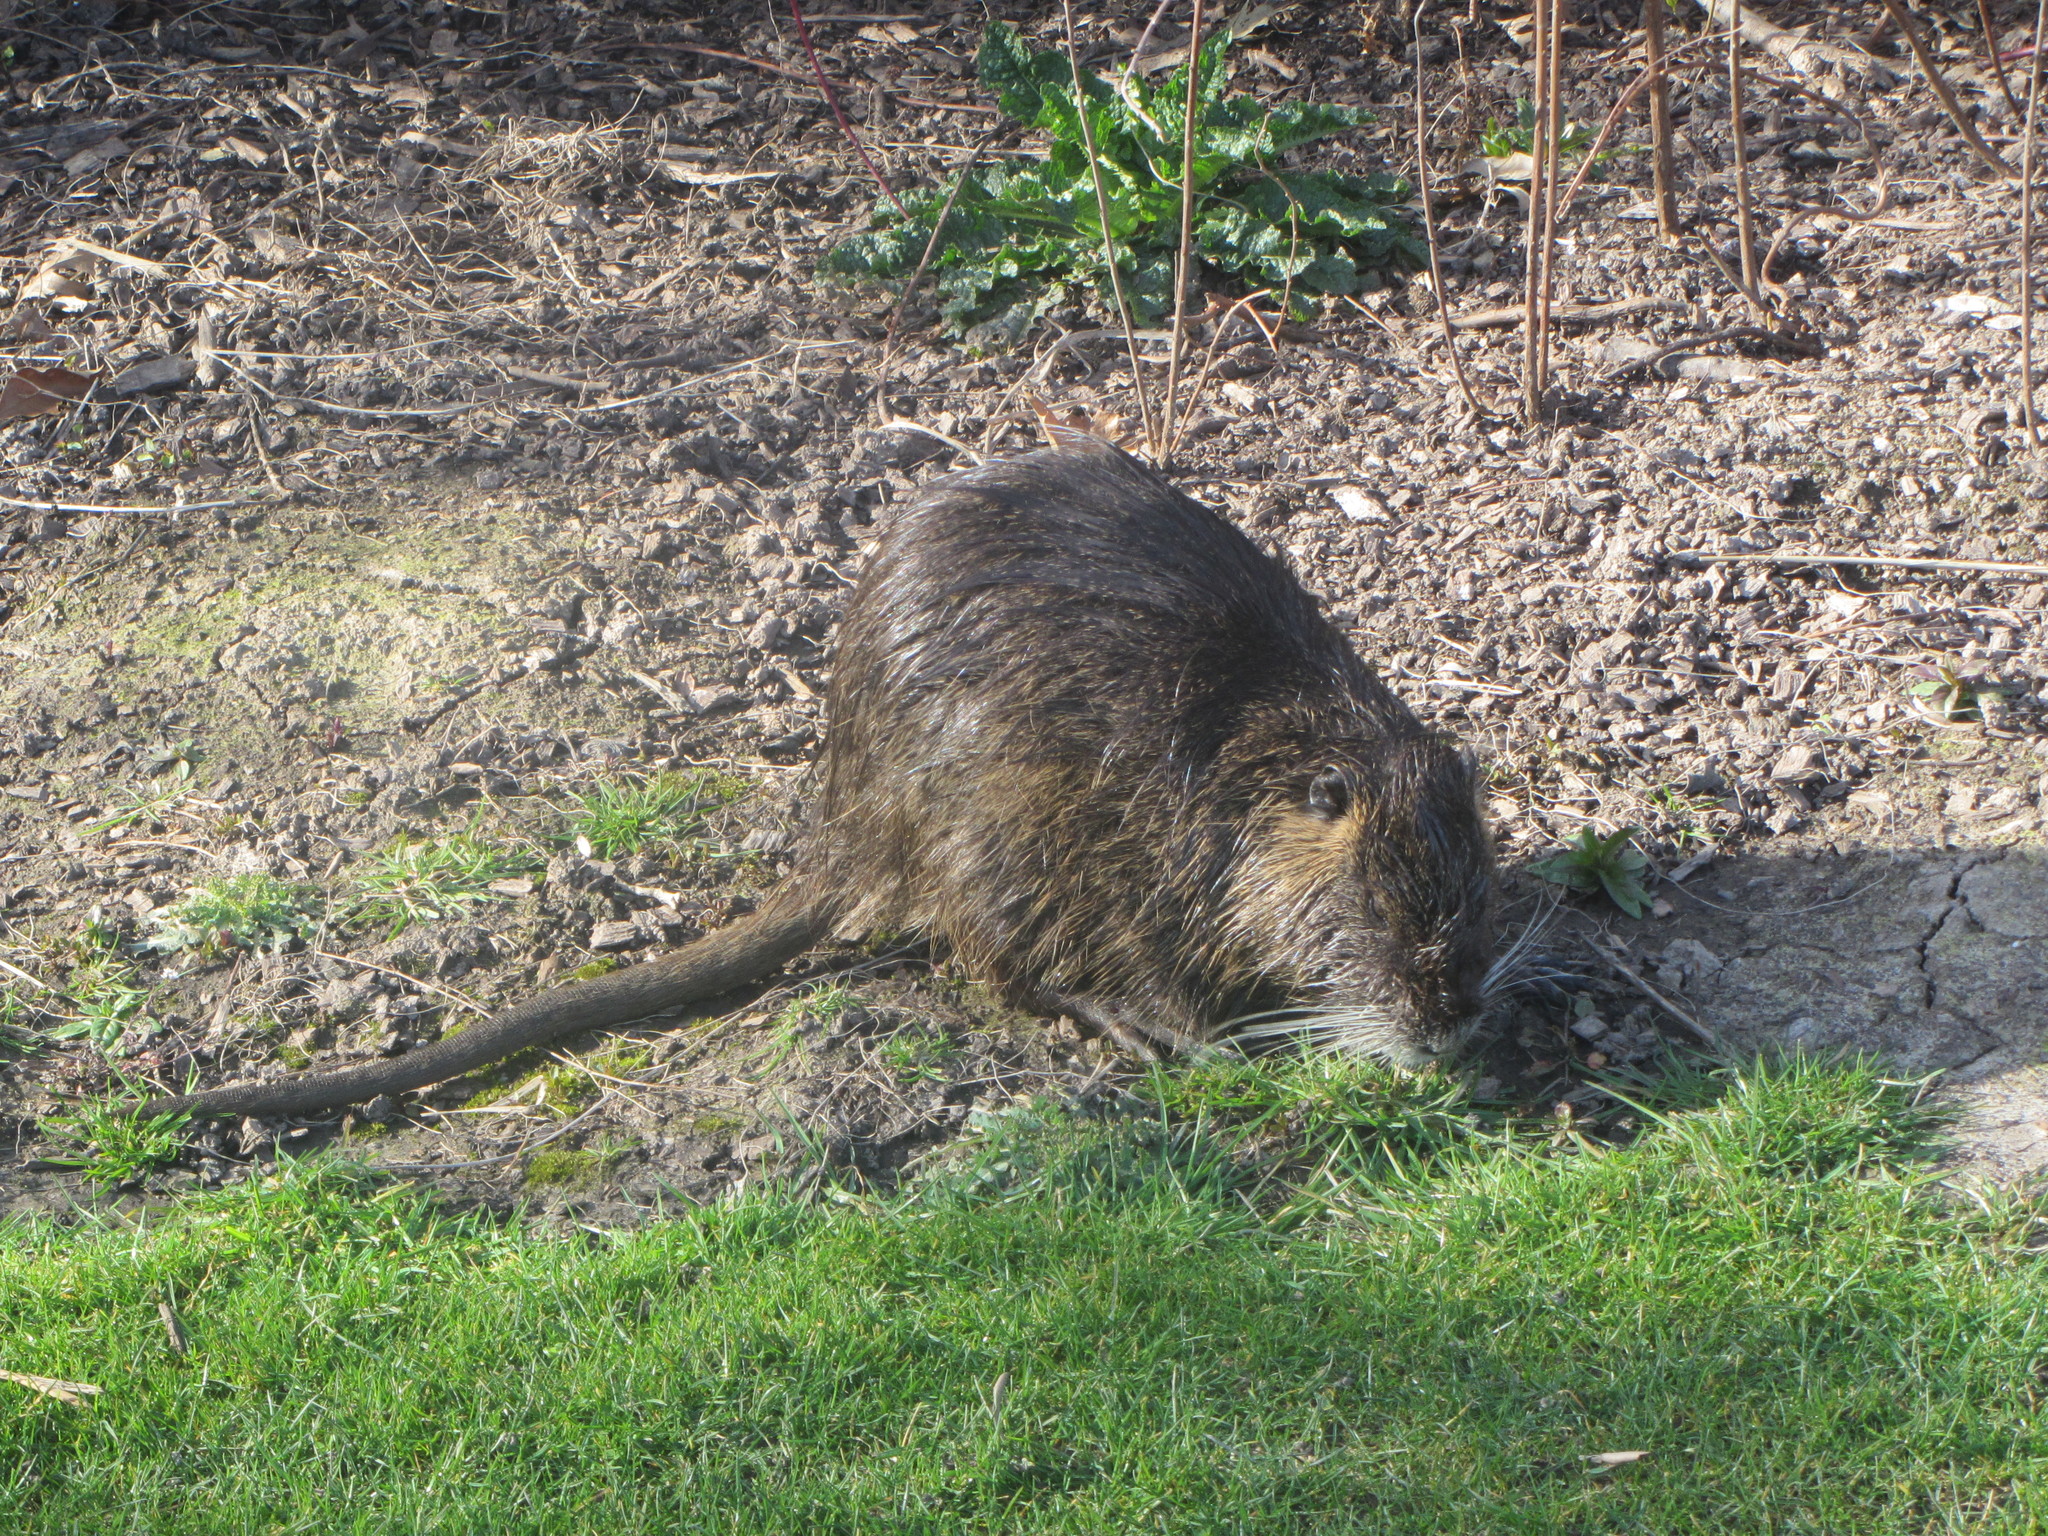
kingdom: Animalia
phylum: Chordata
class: Mammalia
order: Rodentia
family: Myocastoridae
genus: Myocastor
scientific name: Myocastor coypus
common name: Coypu
